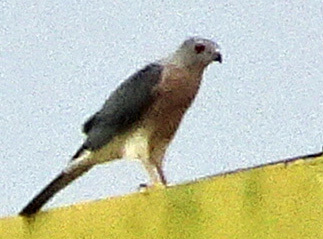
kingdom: Animalia
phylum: Chordata
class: Aves
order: Accipitriformes
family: Accipitridae
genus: Accipiter
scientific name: Accipiter badius
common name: Shikra
